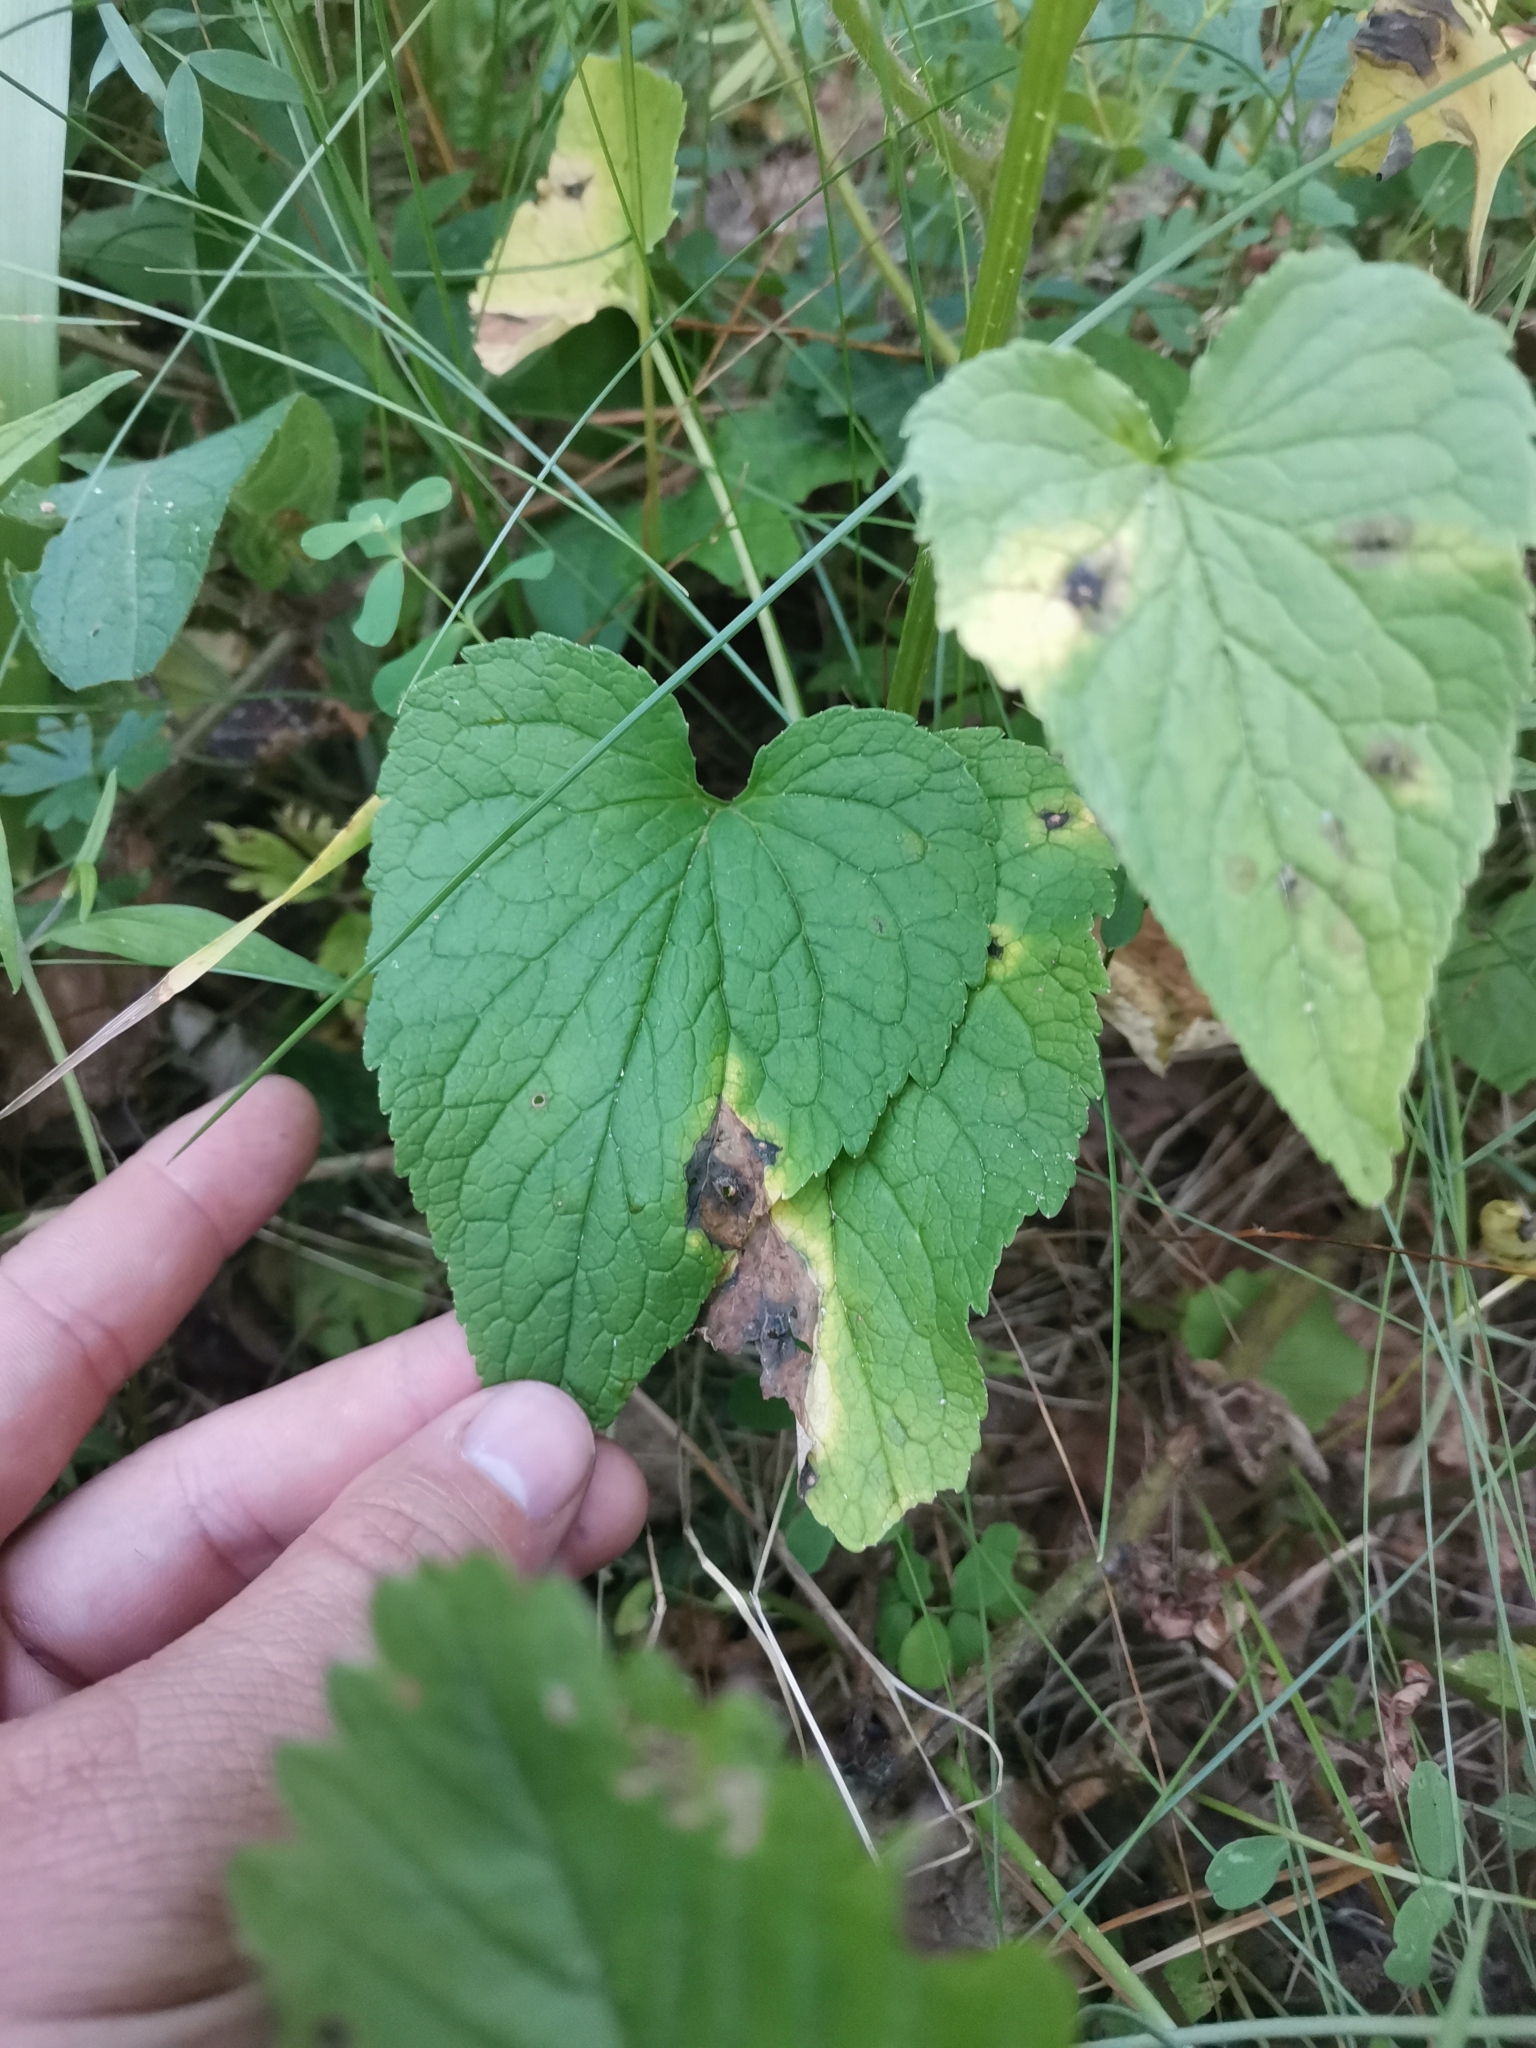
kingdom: Plantae
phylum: Tracheophyta
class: Magnoliopsida
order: Asterales
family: Campanulaceae
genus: Phyteuma
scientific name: Phyteuma spicatum
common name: Spiked rampion
